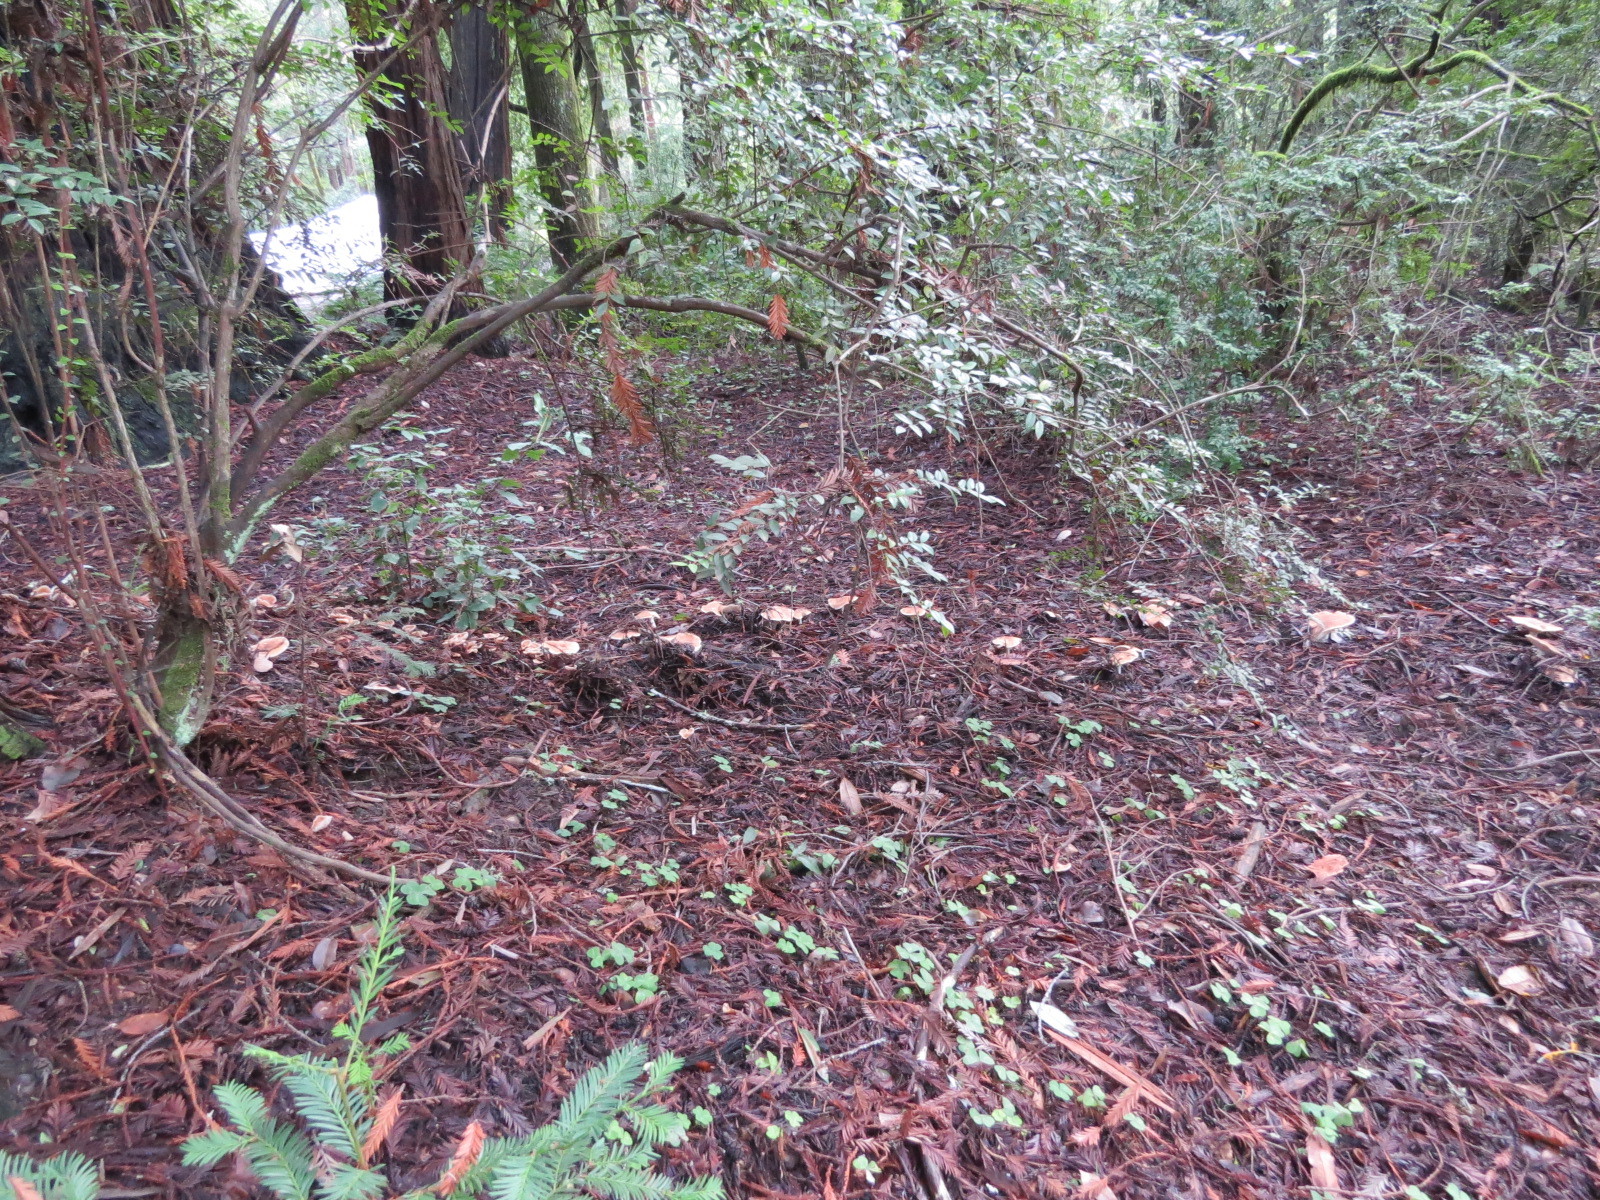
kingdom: Fungi
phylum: Basidiomycota
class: Agaricomycetes
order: Agaricales
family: Tricholomataceae
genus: Leucopaxillus
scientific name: Leucopaxillus gentianeus
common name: Bitter funnel
